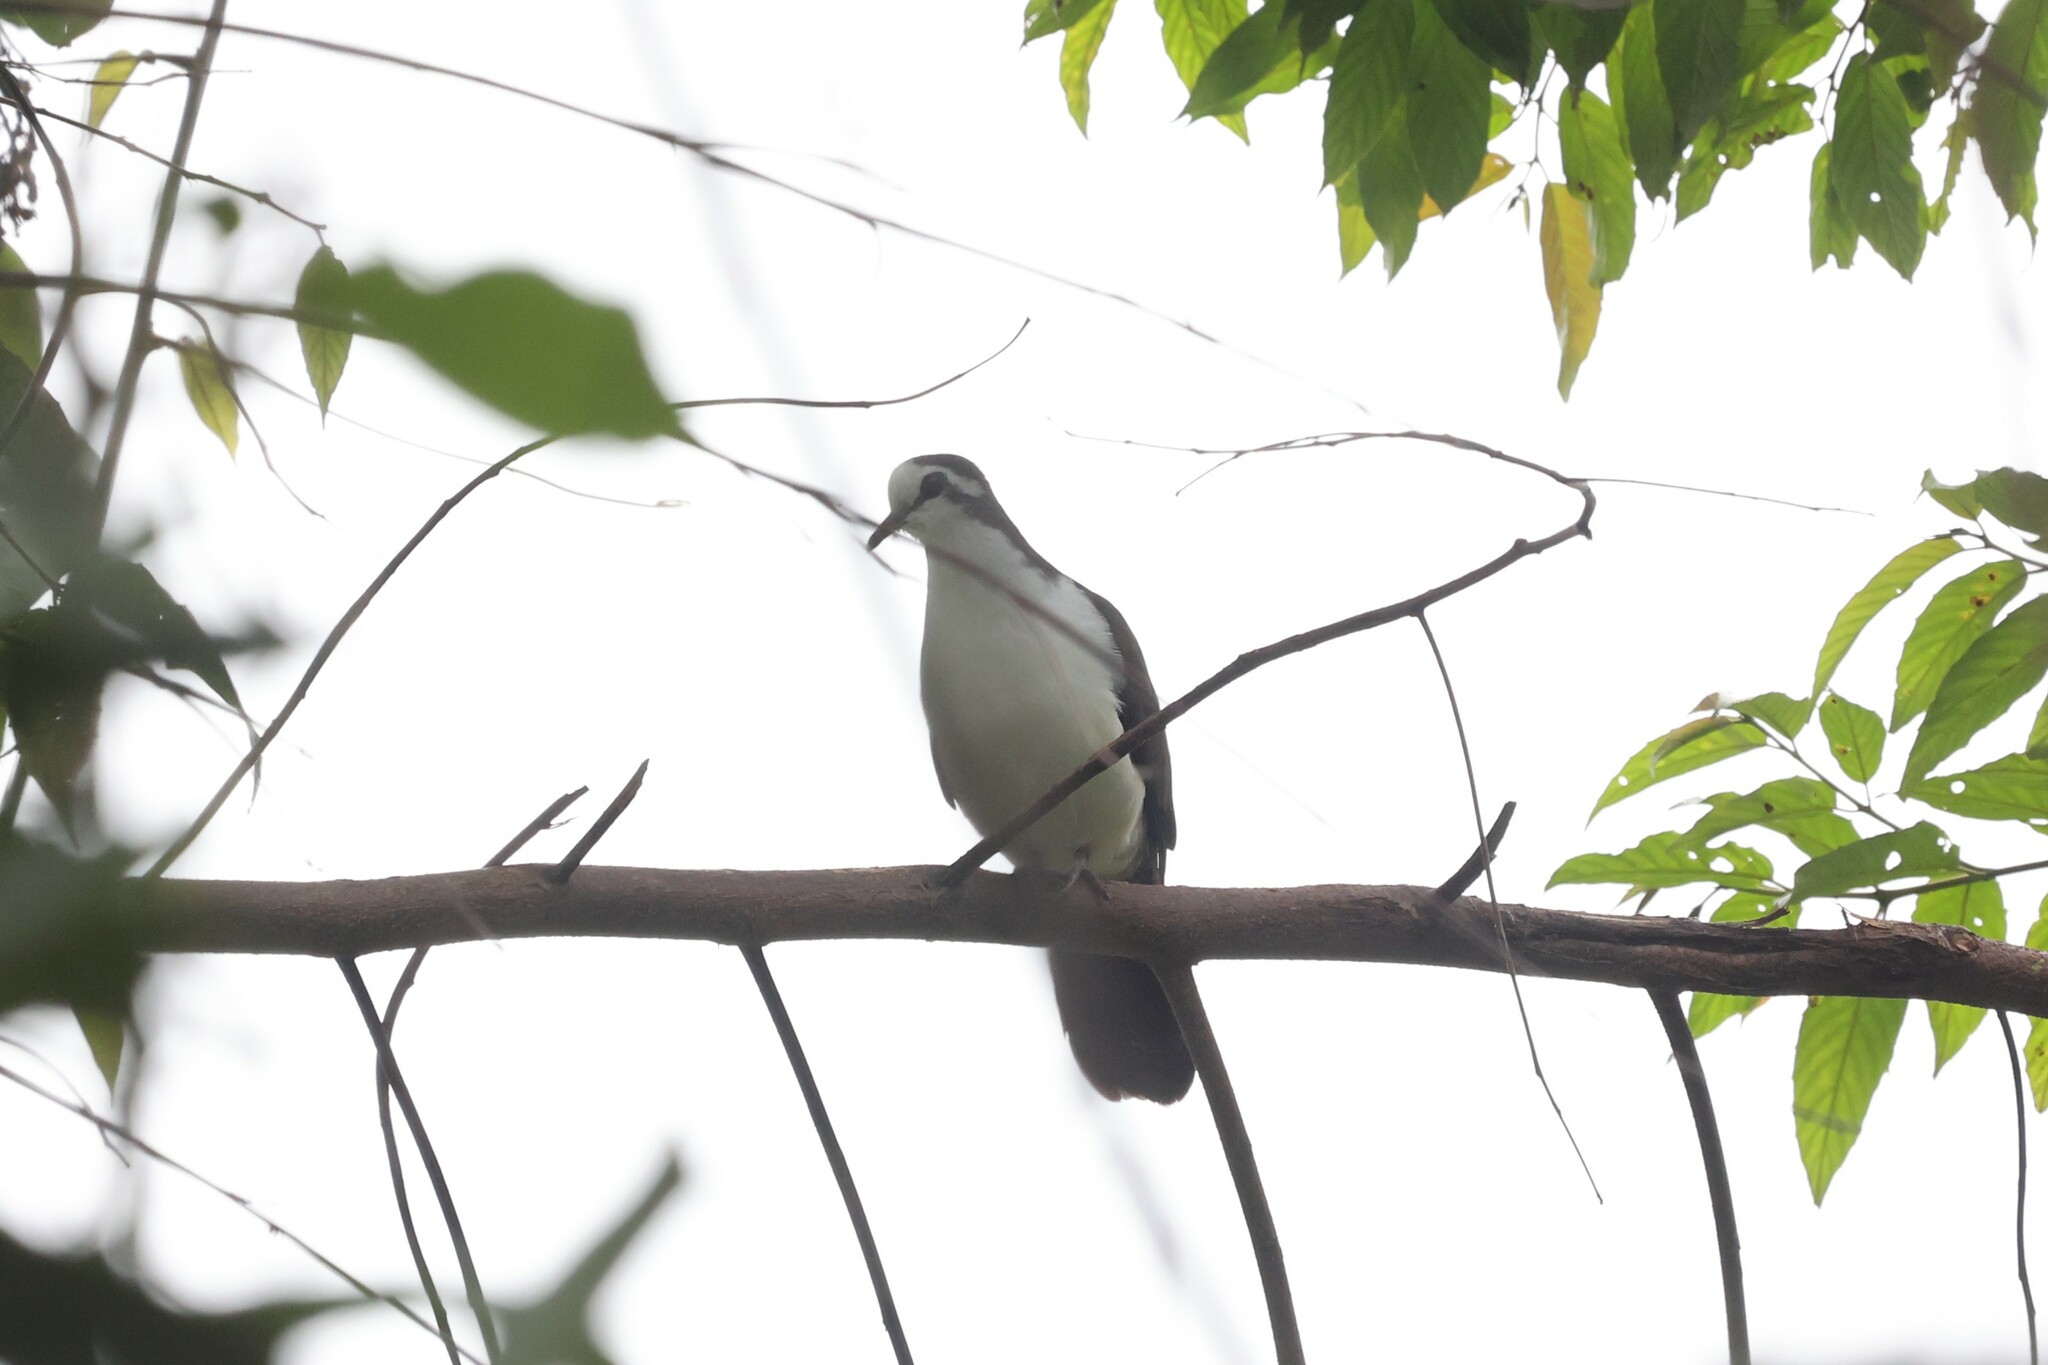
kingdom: Animalia
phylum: Chordata
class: Aves
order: Columbiformes
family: Columbidae
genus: Turtur
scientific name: Turtur tympanistria
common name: Tambourine dove
